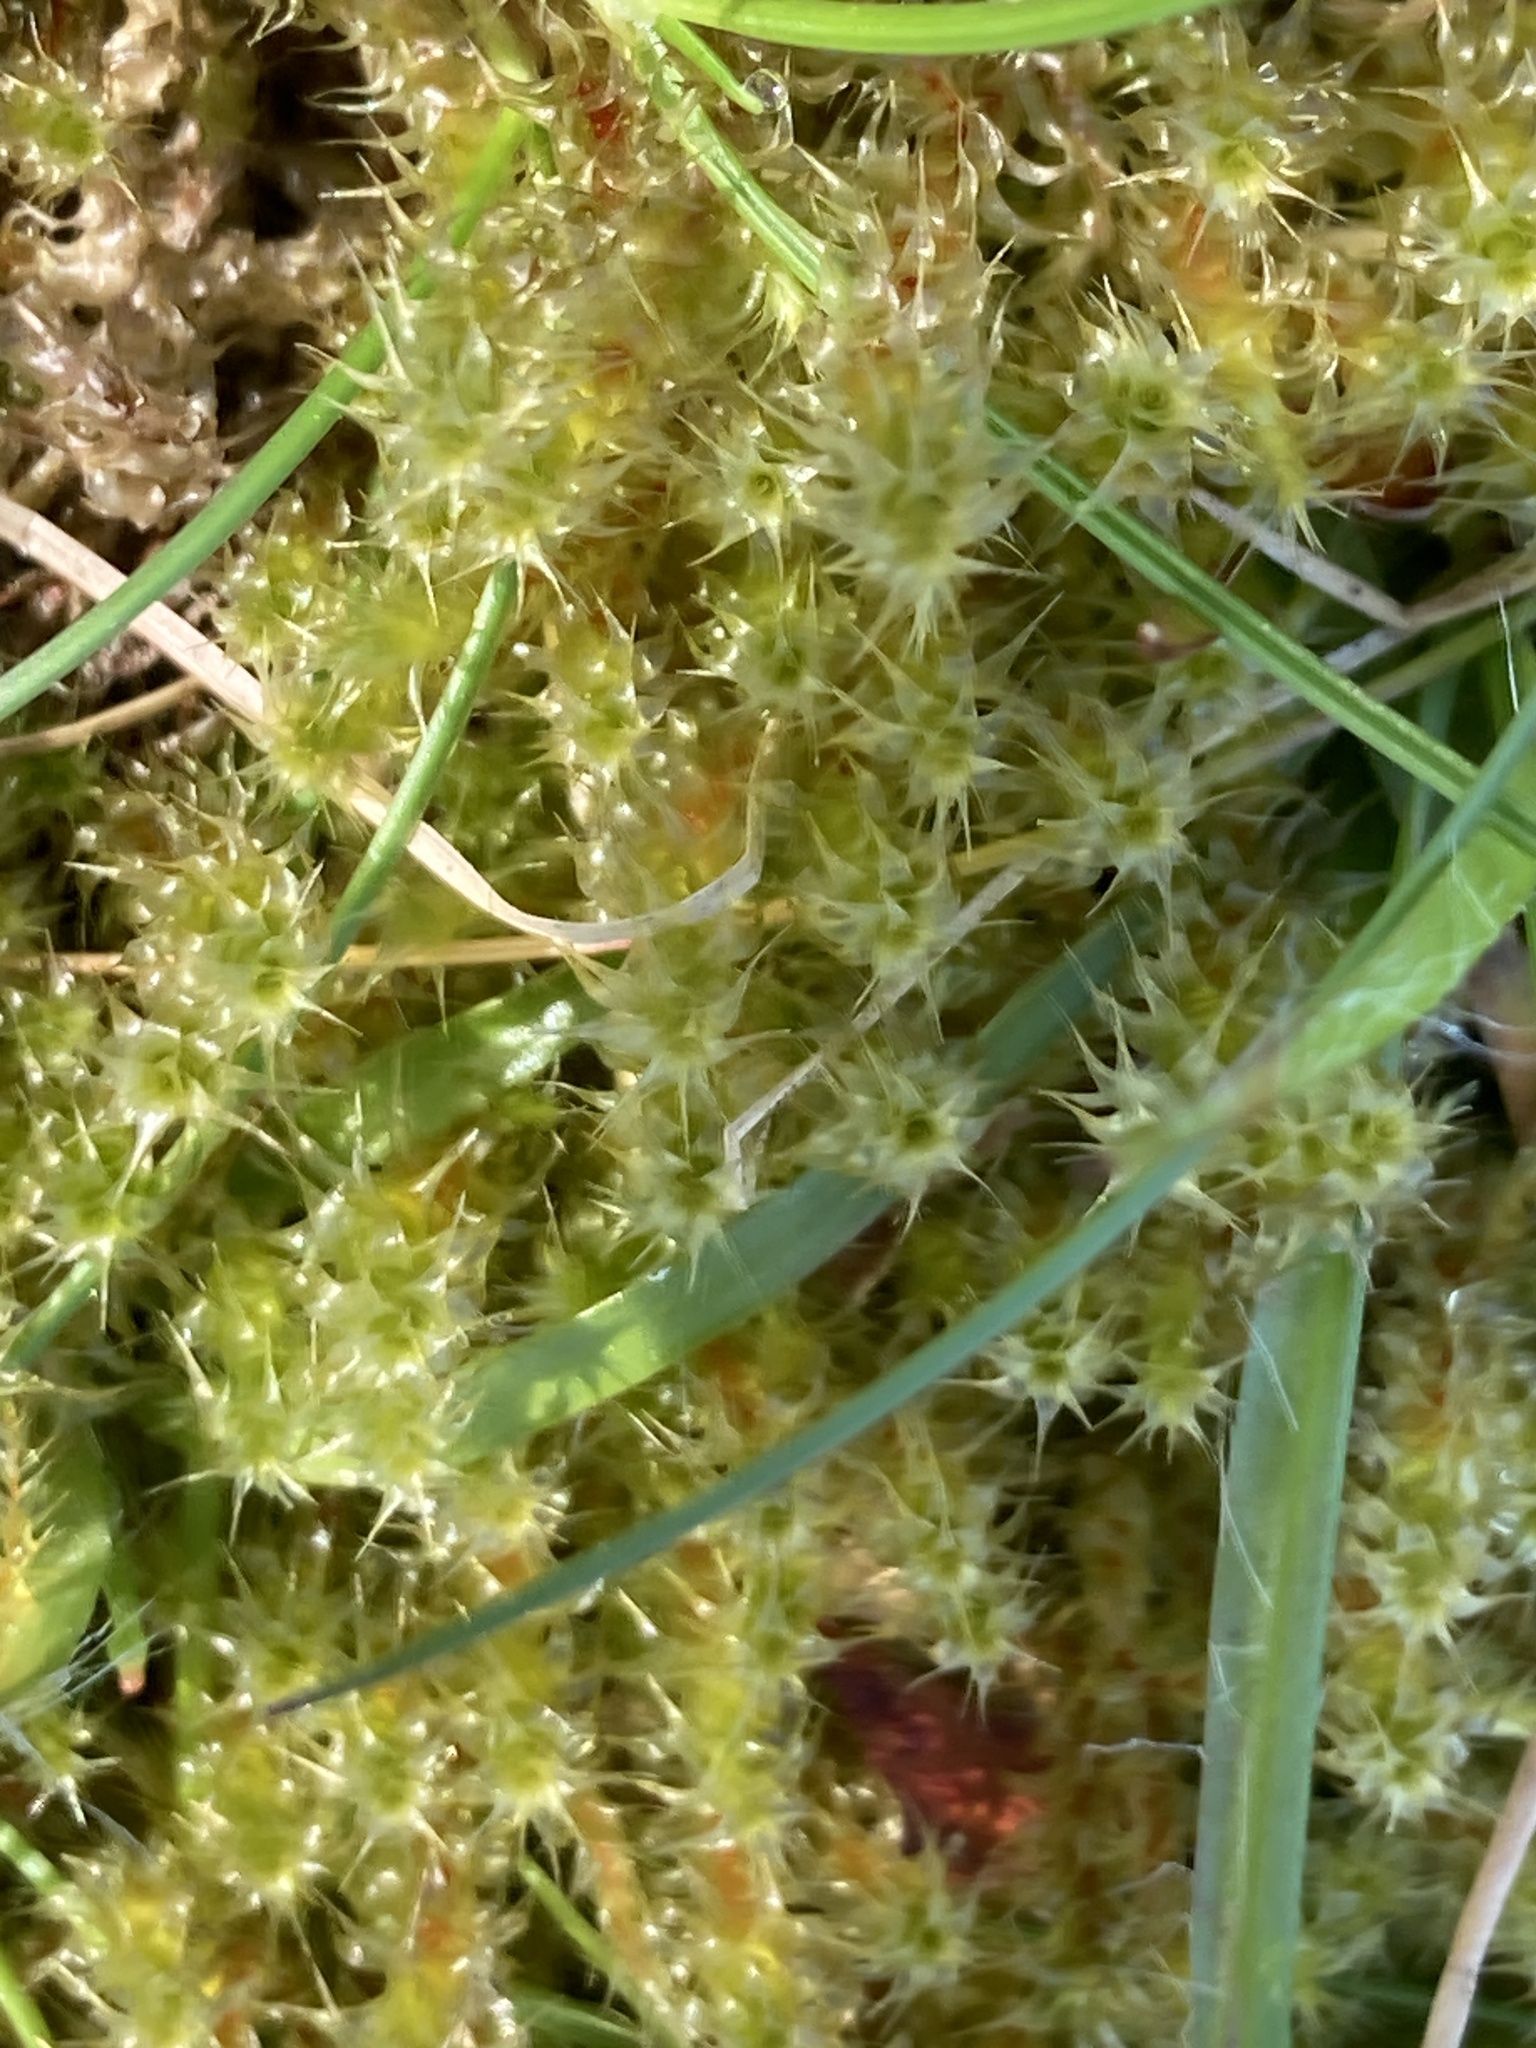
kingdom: Plantae
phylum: Bryophyta
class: Bryopsida
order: Hypnales
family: Hylocomiaceae
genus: Rhytidiadelphus
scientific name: Rhytidiadelphus squarrosus
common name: Springy turf-moss
